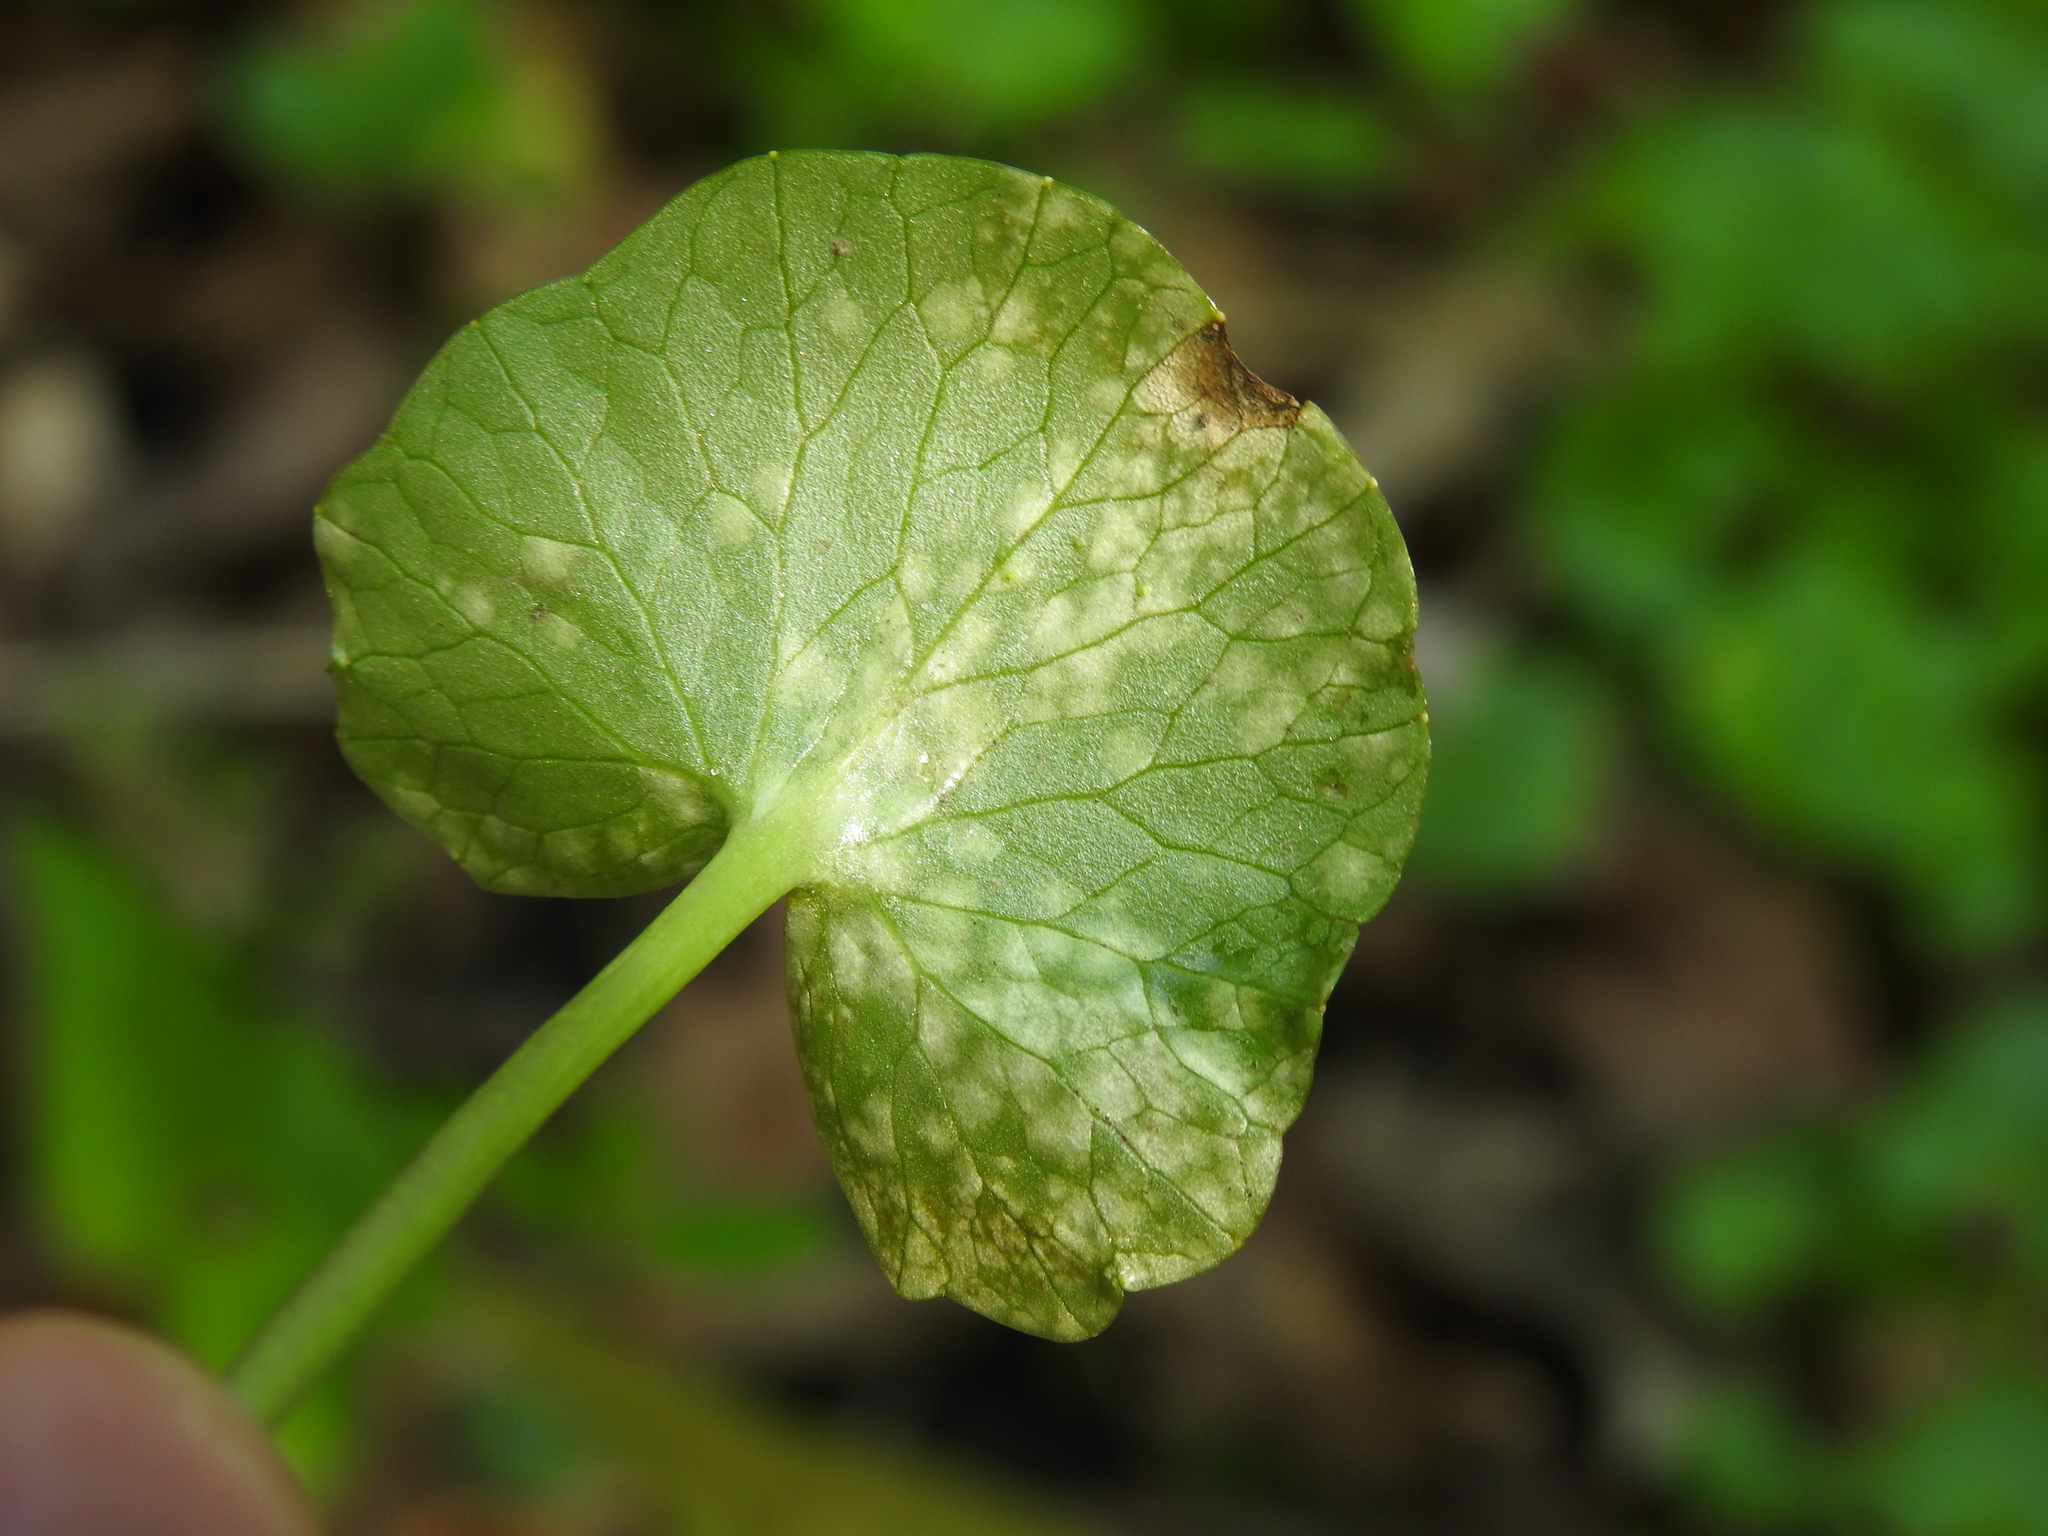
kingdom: Fungi
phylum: Basidiomycota
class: Exobasidiomycetes
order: Entylomatales
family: Entylomataceae
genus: Entyloma
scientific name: Entyloma ficariae
